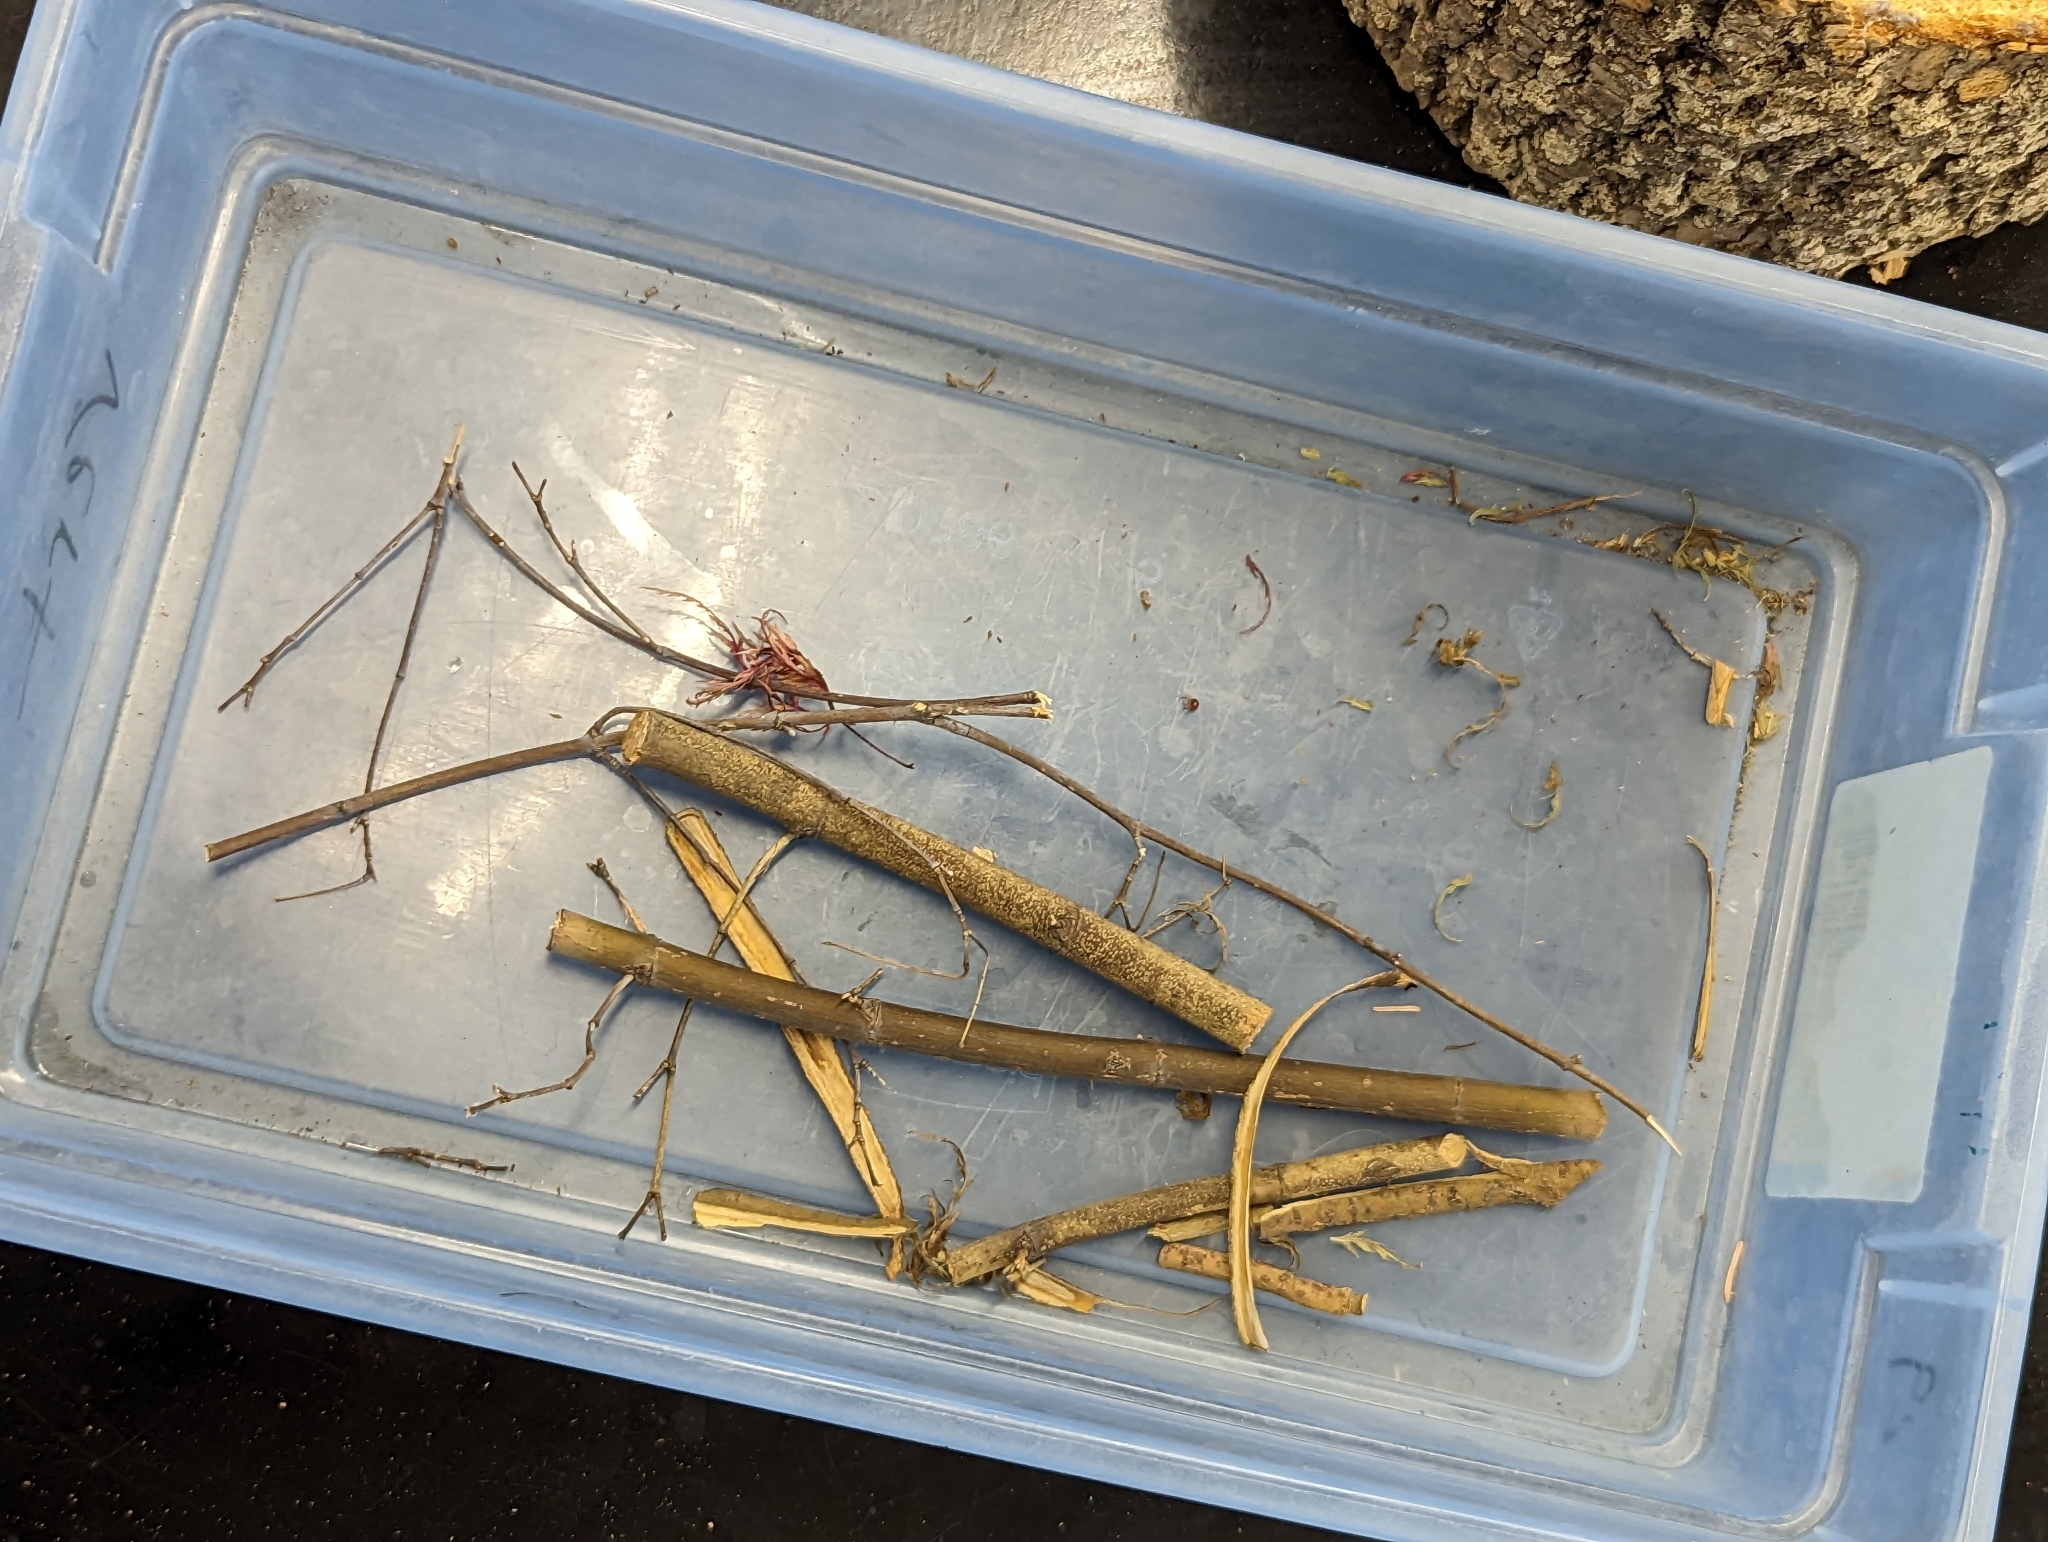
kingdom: Animalia
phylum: Arthropoda
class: Insecta
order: Coleoptera
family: Ptinidae
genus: Gibbium
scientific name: Gibbium aequinoctiale
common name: Smooth spider beetle
